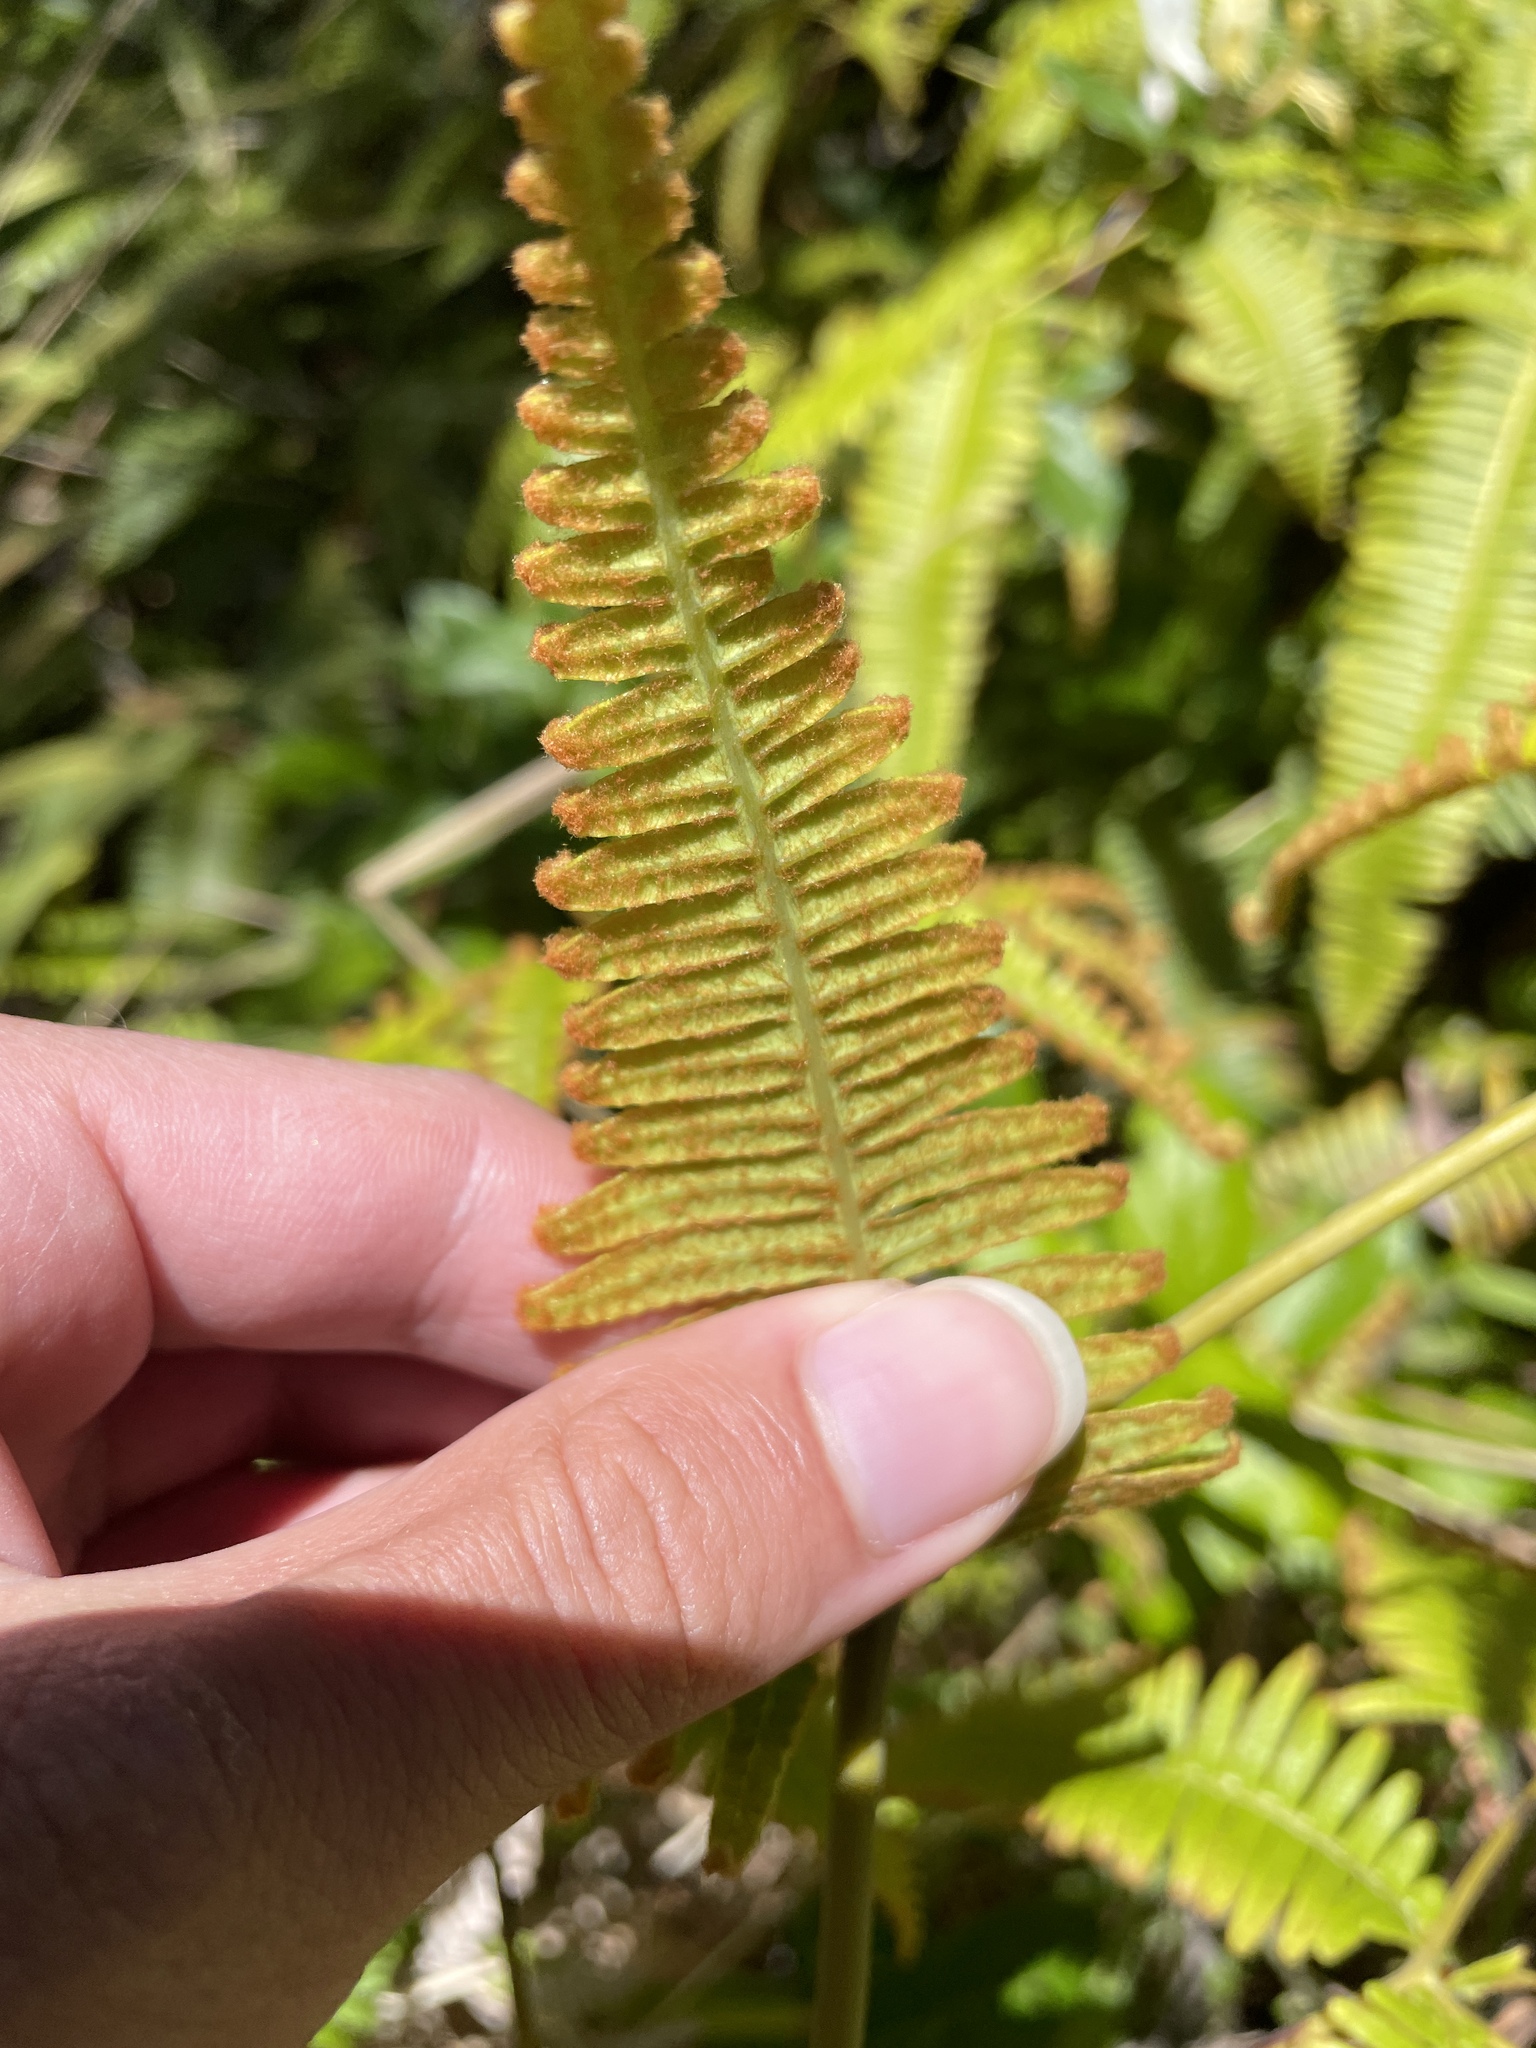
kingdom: Plantae
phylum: Tracheophyta
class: Polypodiopsida
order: Gleicheniales
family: Gleicheniaceae
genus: Dicranopteris
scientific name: Dicranopteris linearis
